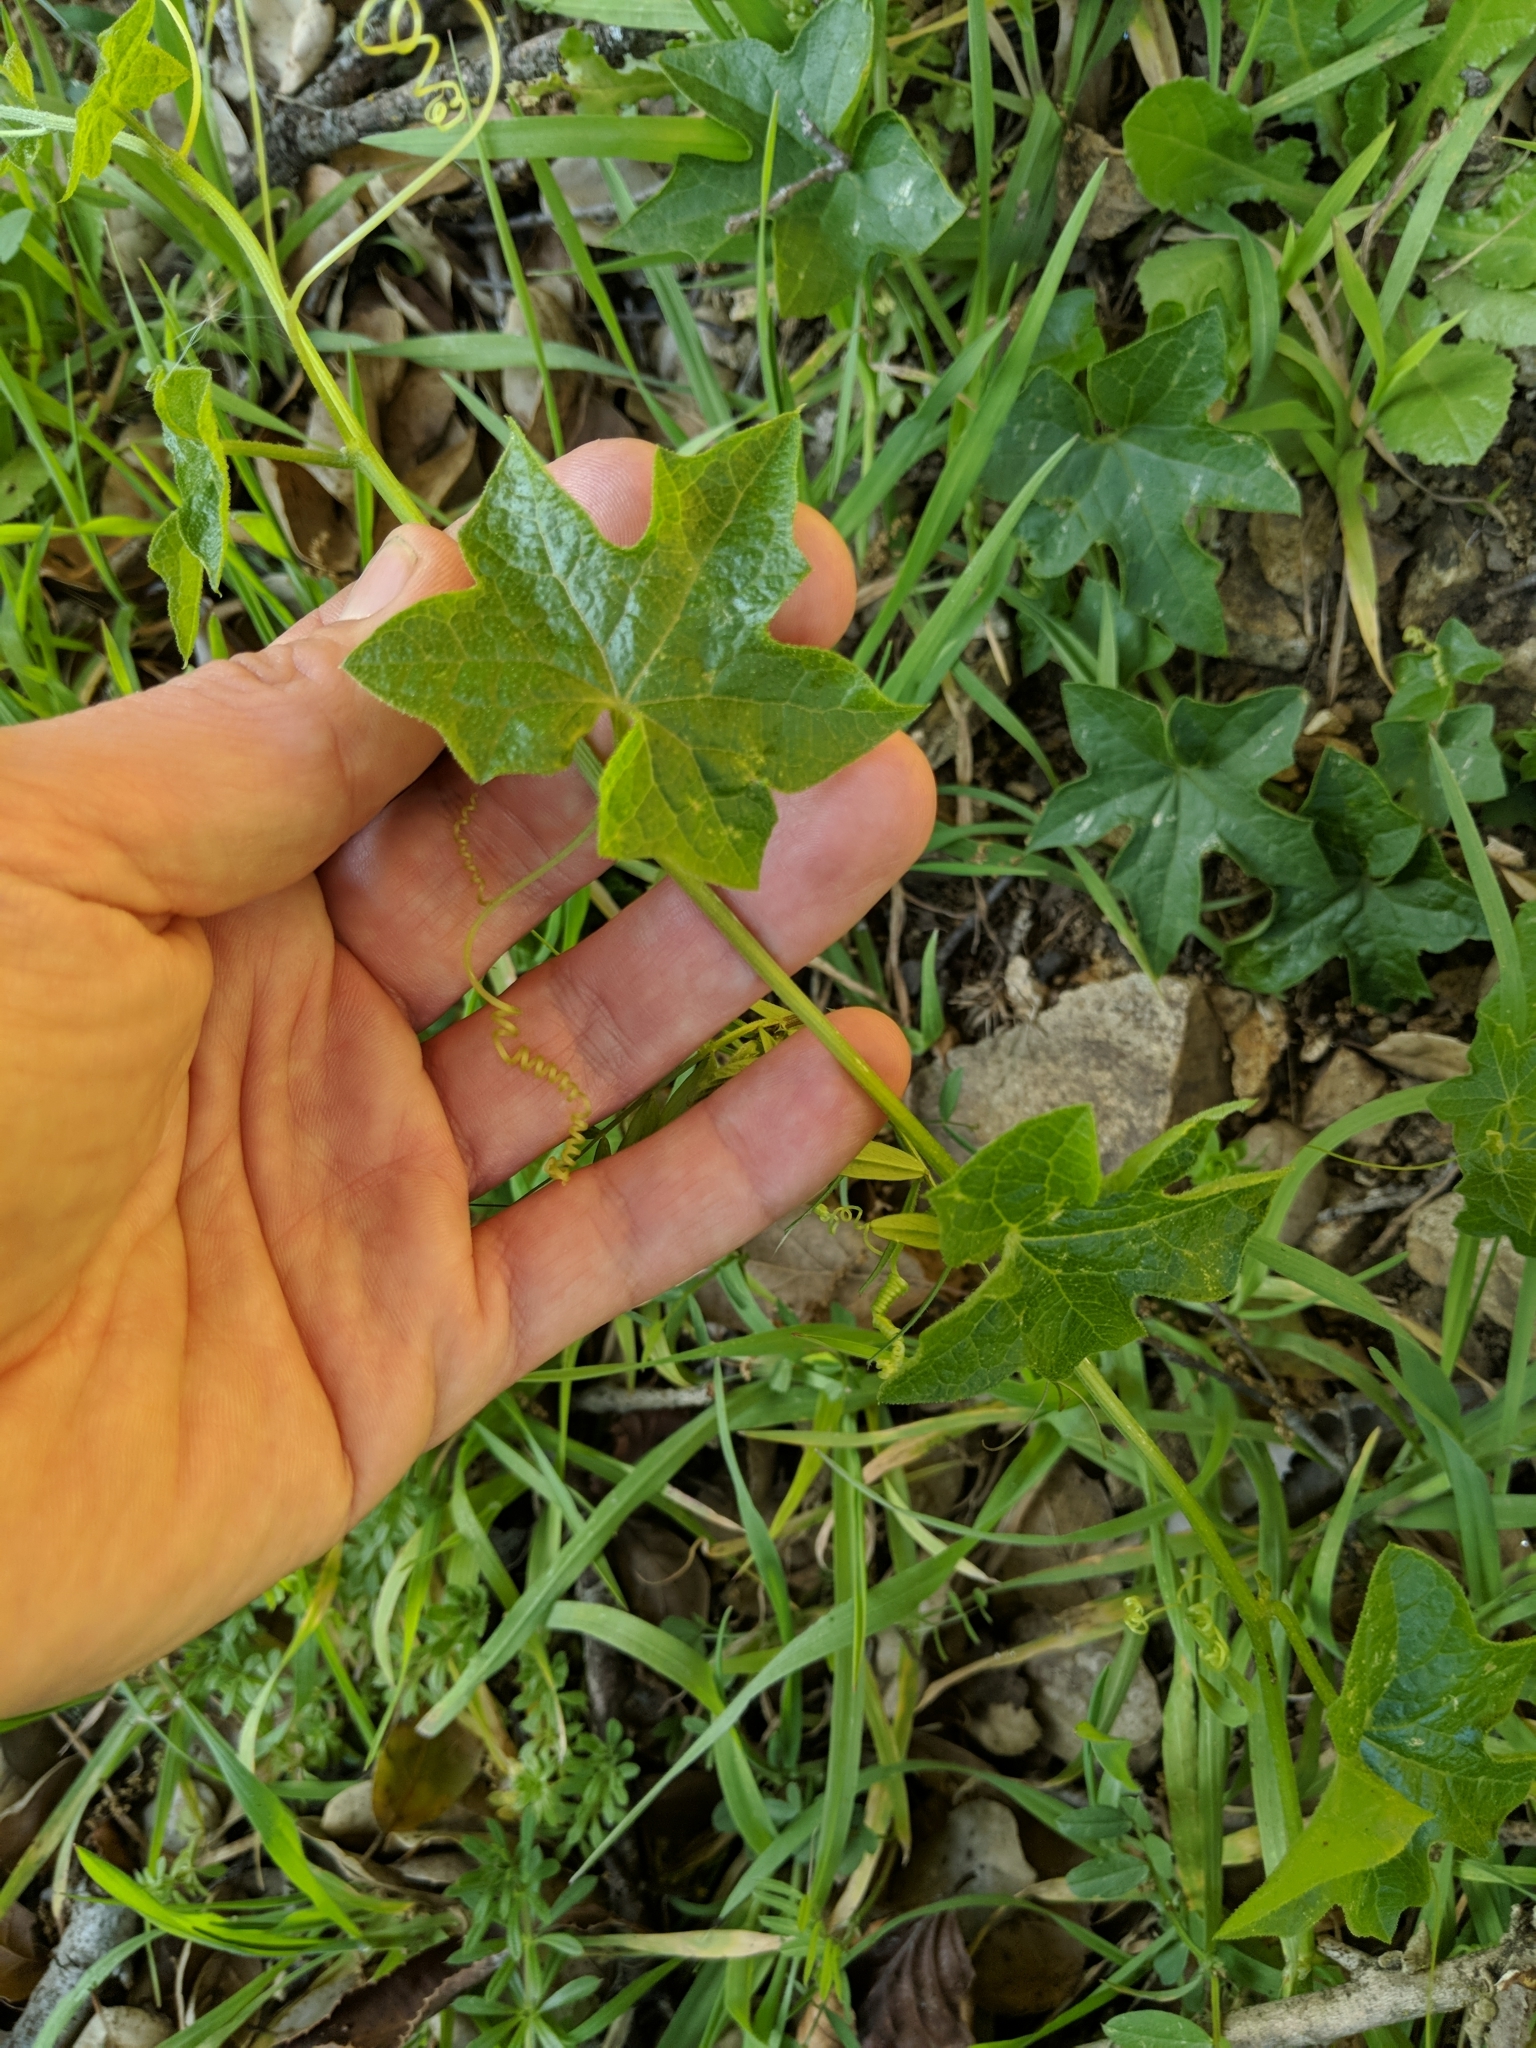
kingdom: Plantae
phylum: Tracheophyta
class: Magnoliopsida
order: Cucurbitales
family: Cucurbitaceae
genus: Marah
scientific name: Marah
